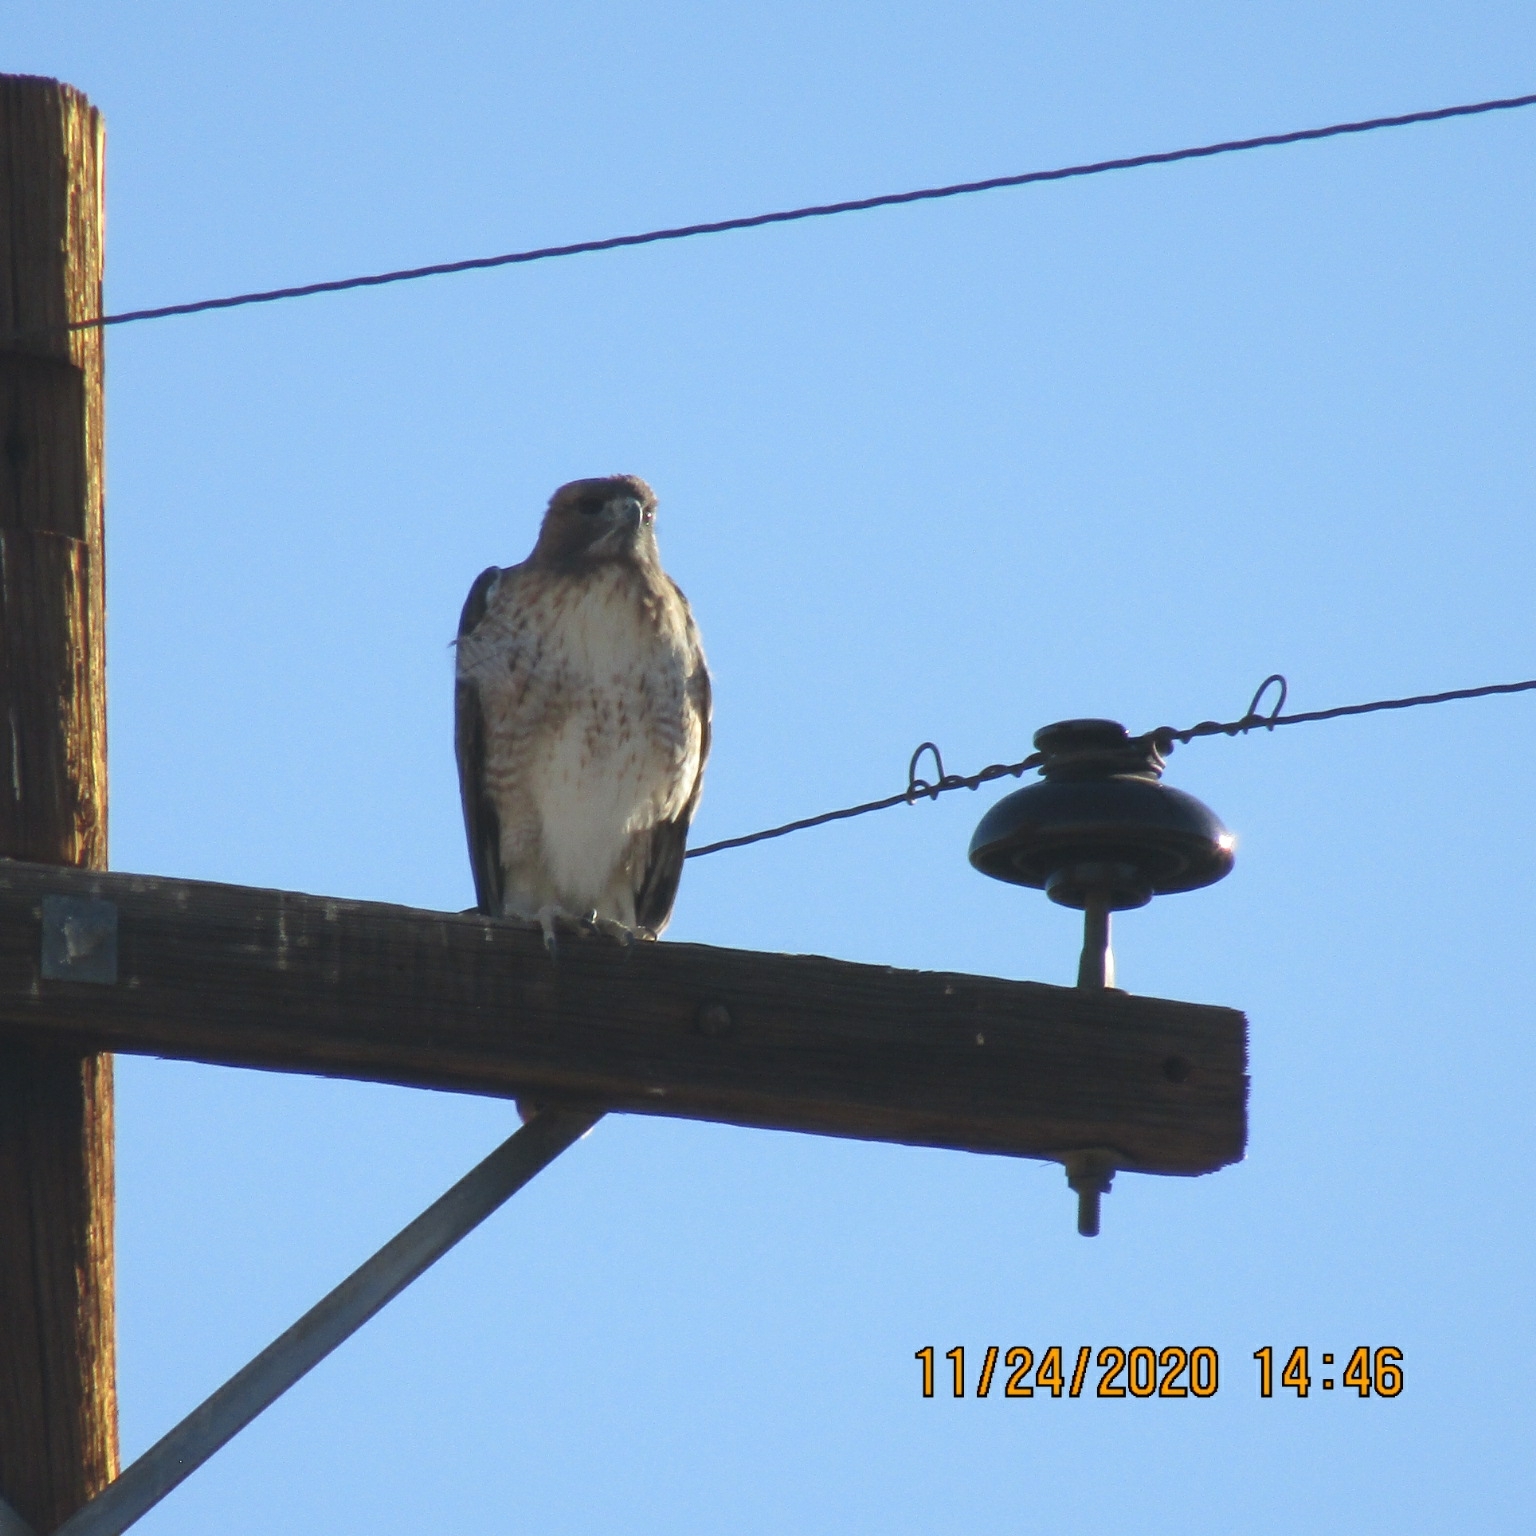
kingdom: Animalia
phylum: Chordata
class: Aves
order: Accipitriformes
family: Accipitridae
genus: Buteo
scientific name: Buteo jamaicensis
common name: Red-tailed hawk
